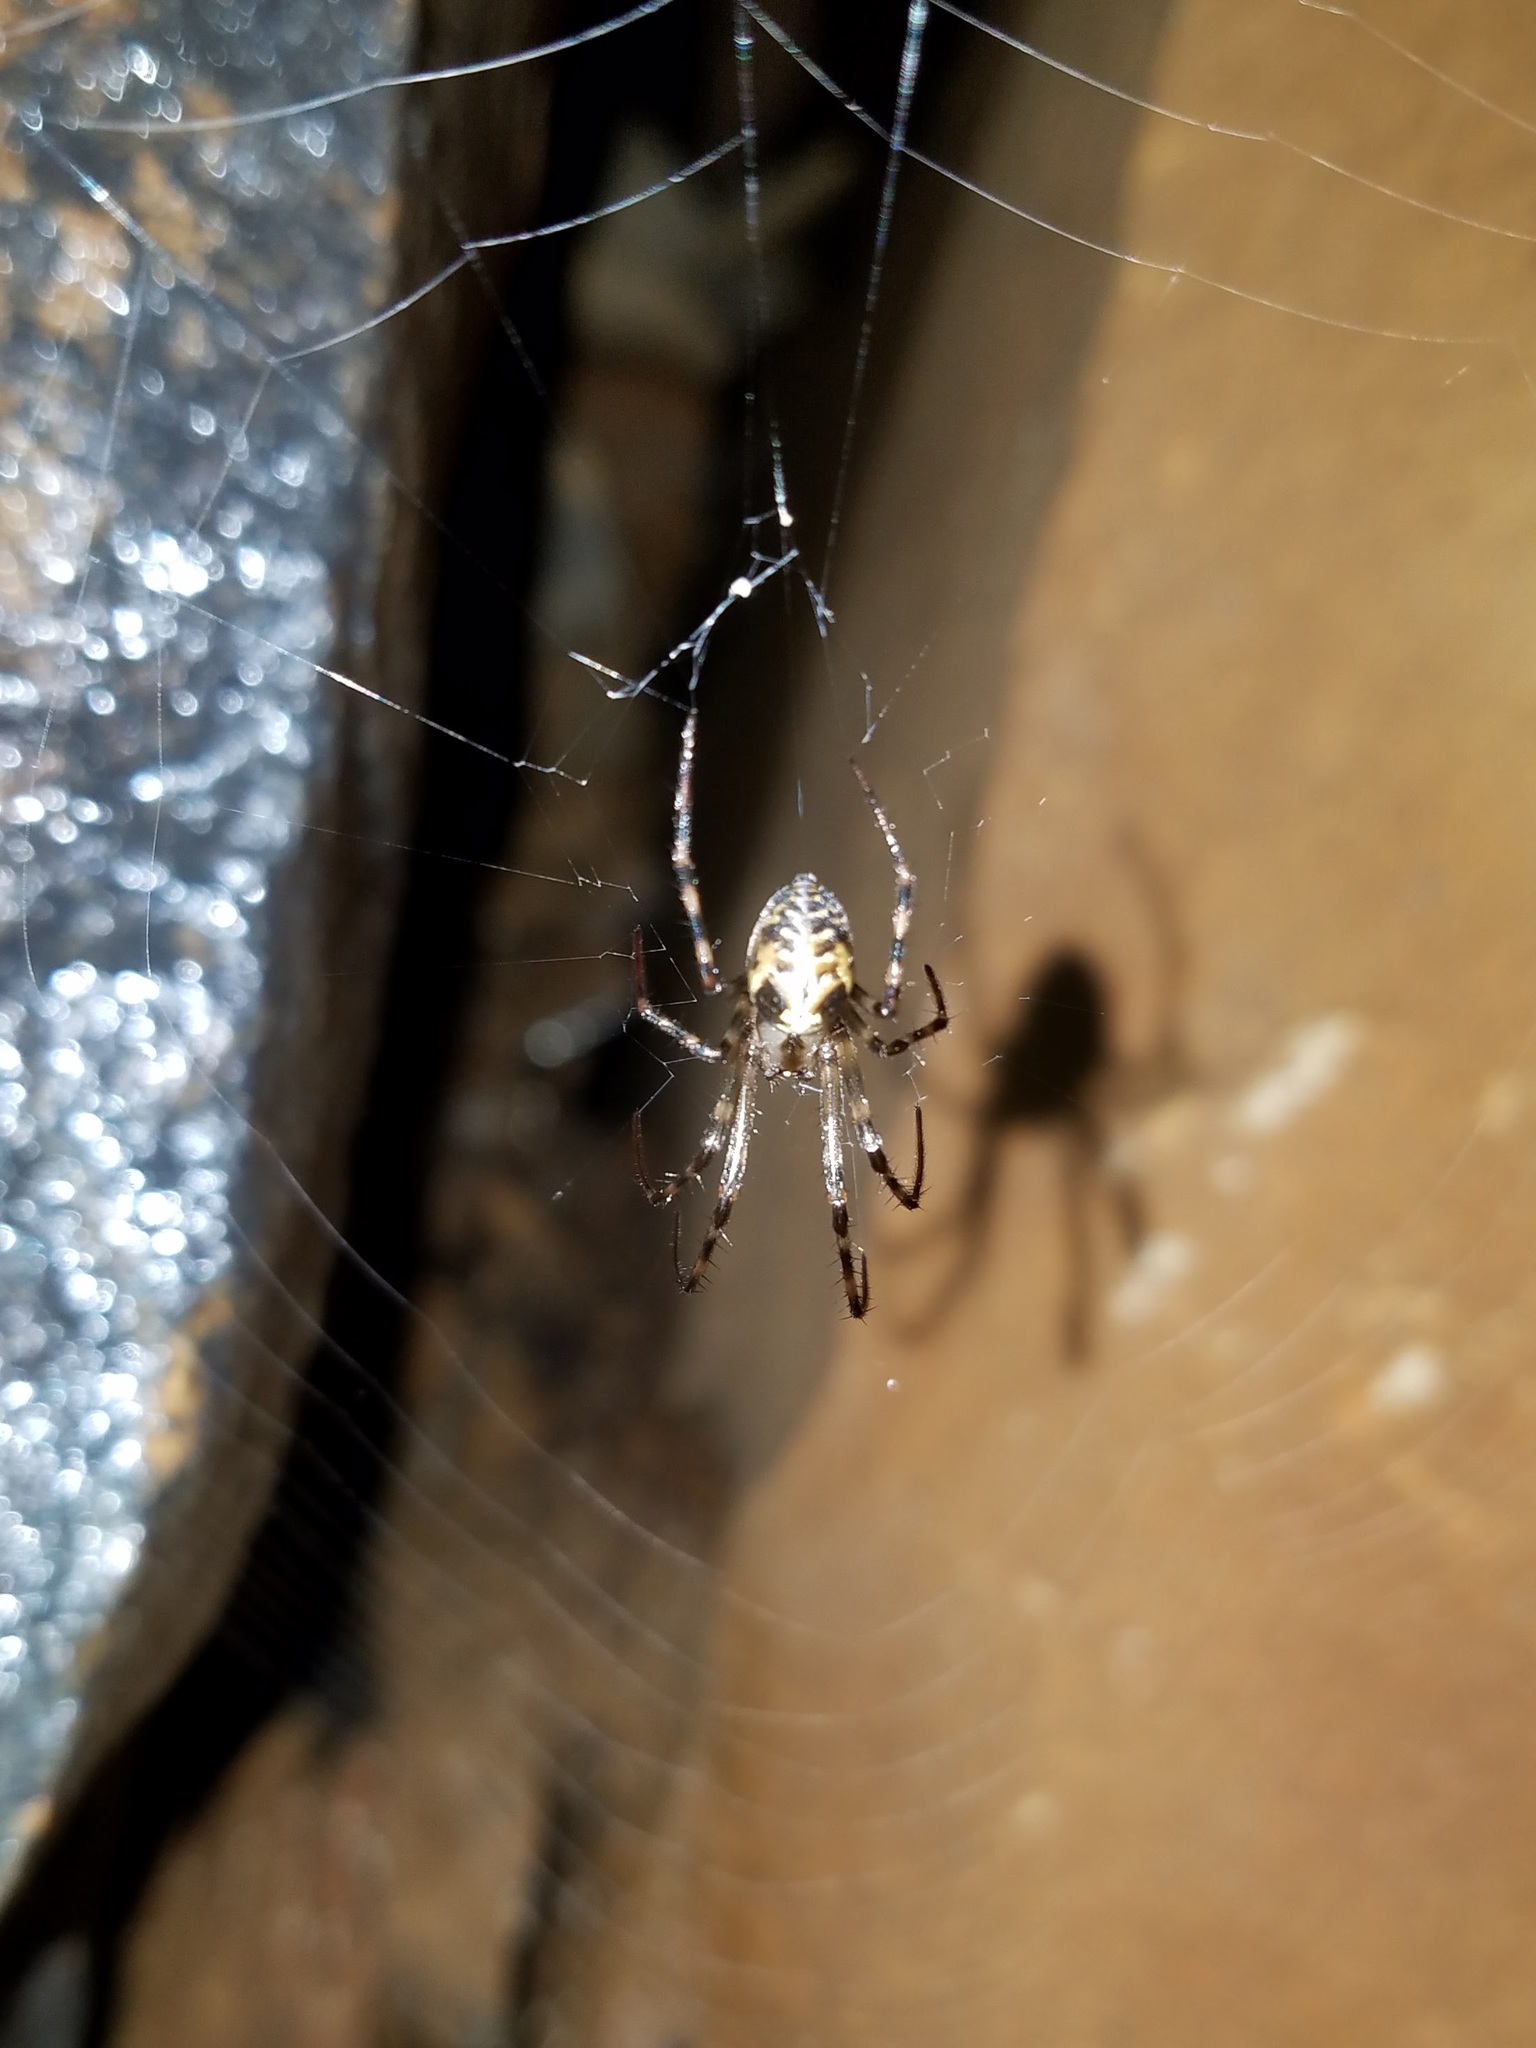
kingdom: Animalia
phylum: Arthropoda
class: Arachnida
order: Araneae
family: Tetragnathidae
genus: Meta
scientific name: Meta ovalis
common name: Eastern cave long-jawed spider
